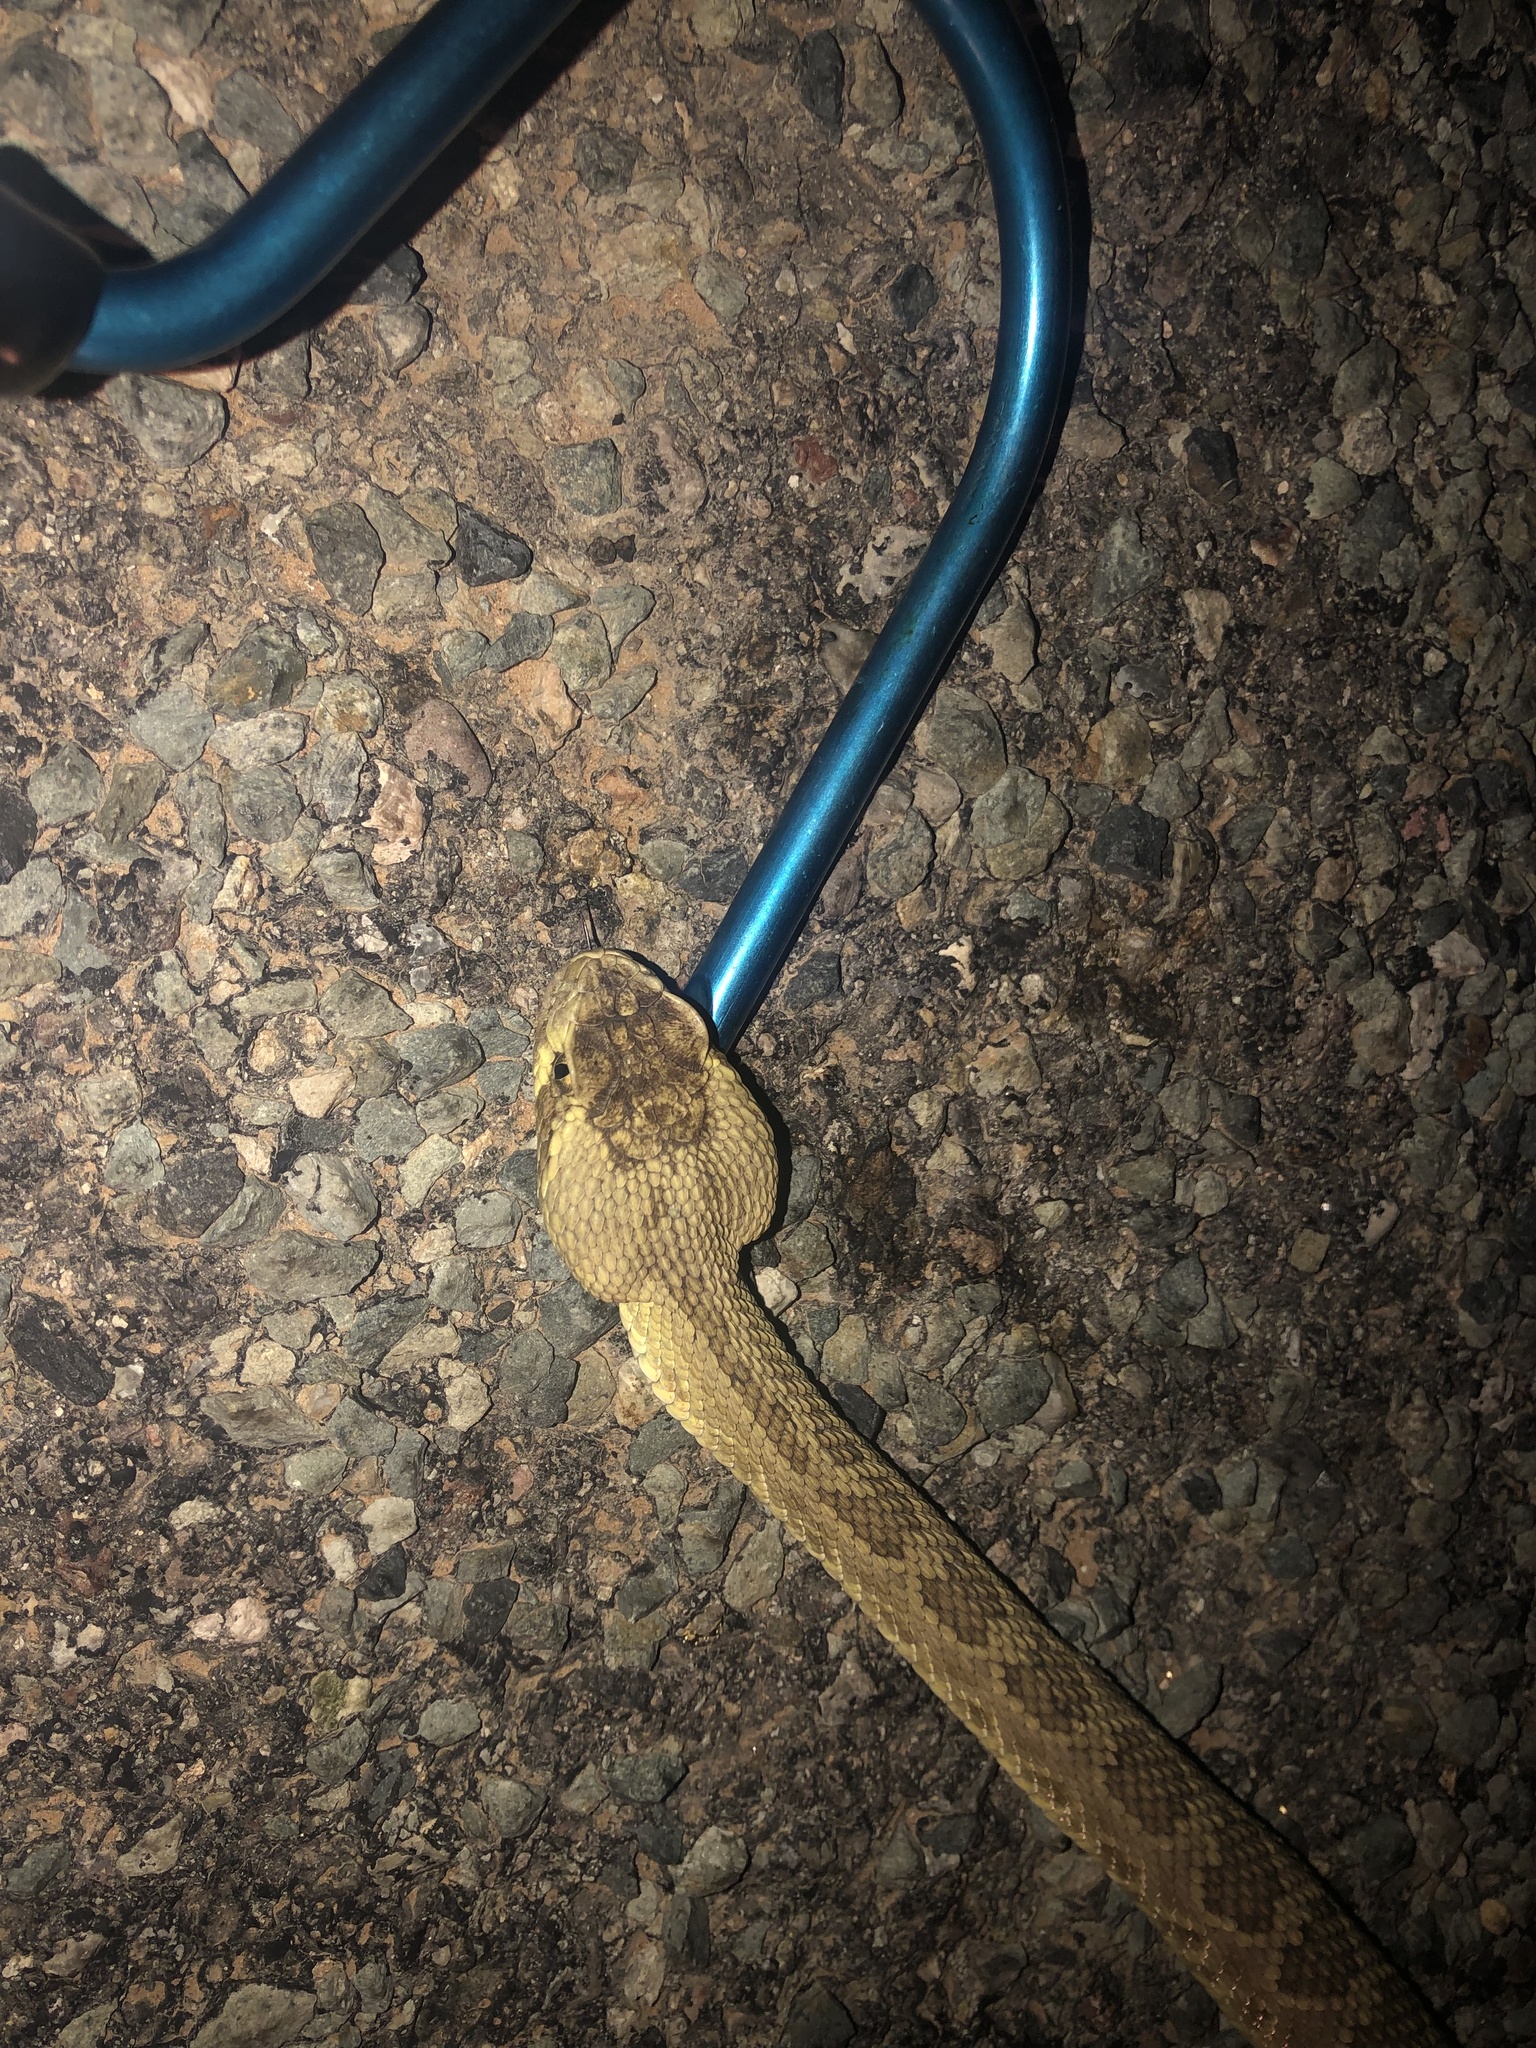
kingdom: Animalia
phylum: Chordata
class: Squamata
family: Viperidae
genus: Crotalus
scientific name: Crotalus scutulatus
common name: Scutulatus
